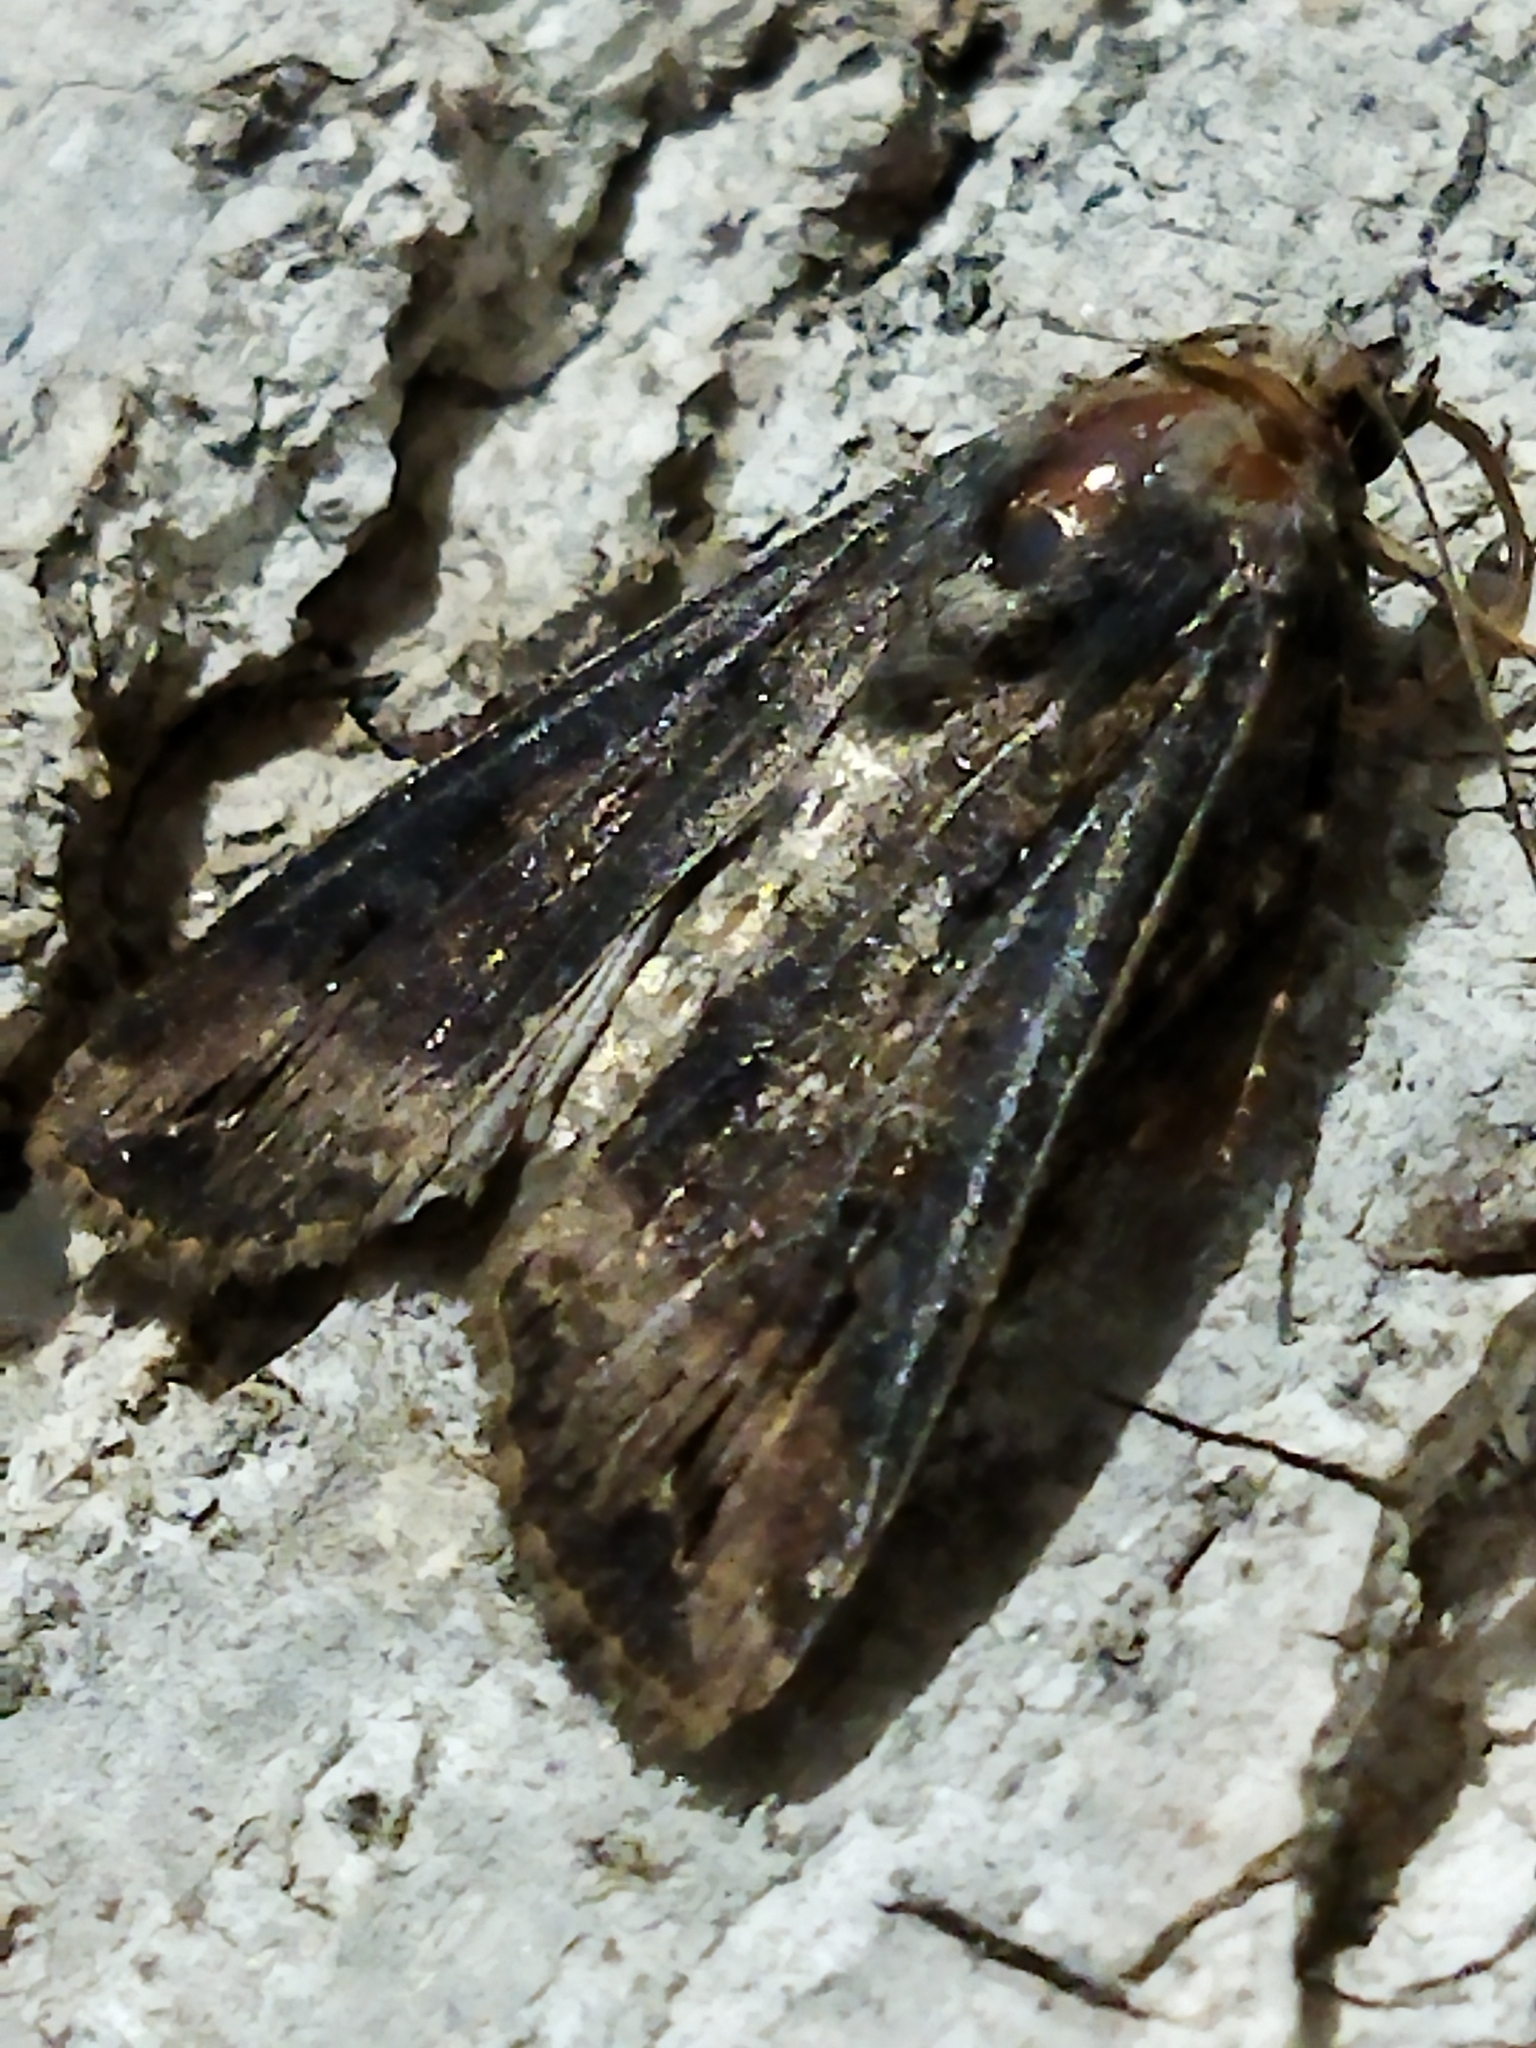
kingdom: Animalia
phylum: Arthropoda
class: Insecta
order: Lepidoptera
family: Noctuidae
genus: Agrotis
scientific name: Agrotis ipsilon
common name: Dark sword-grass
